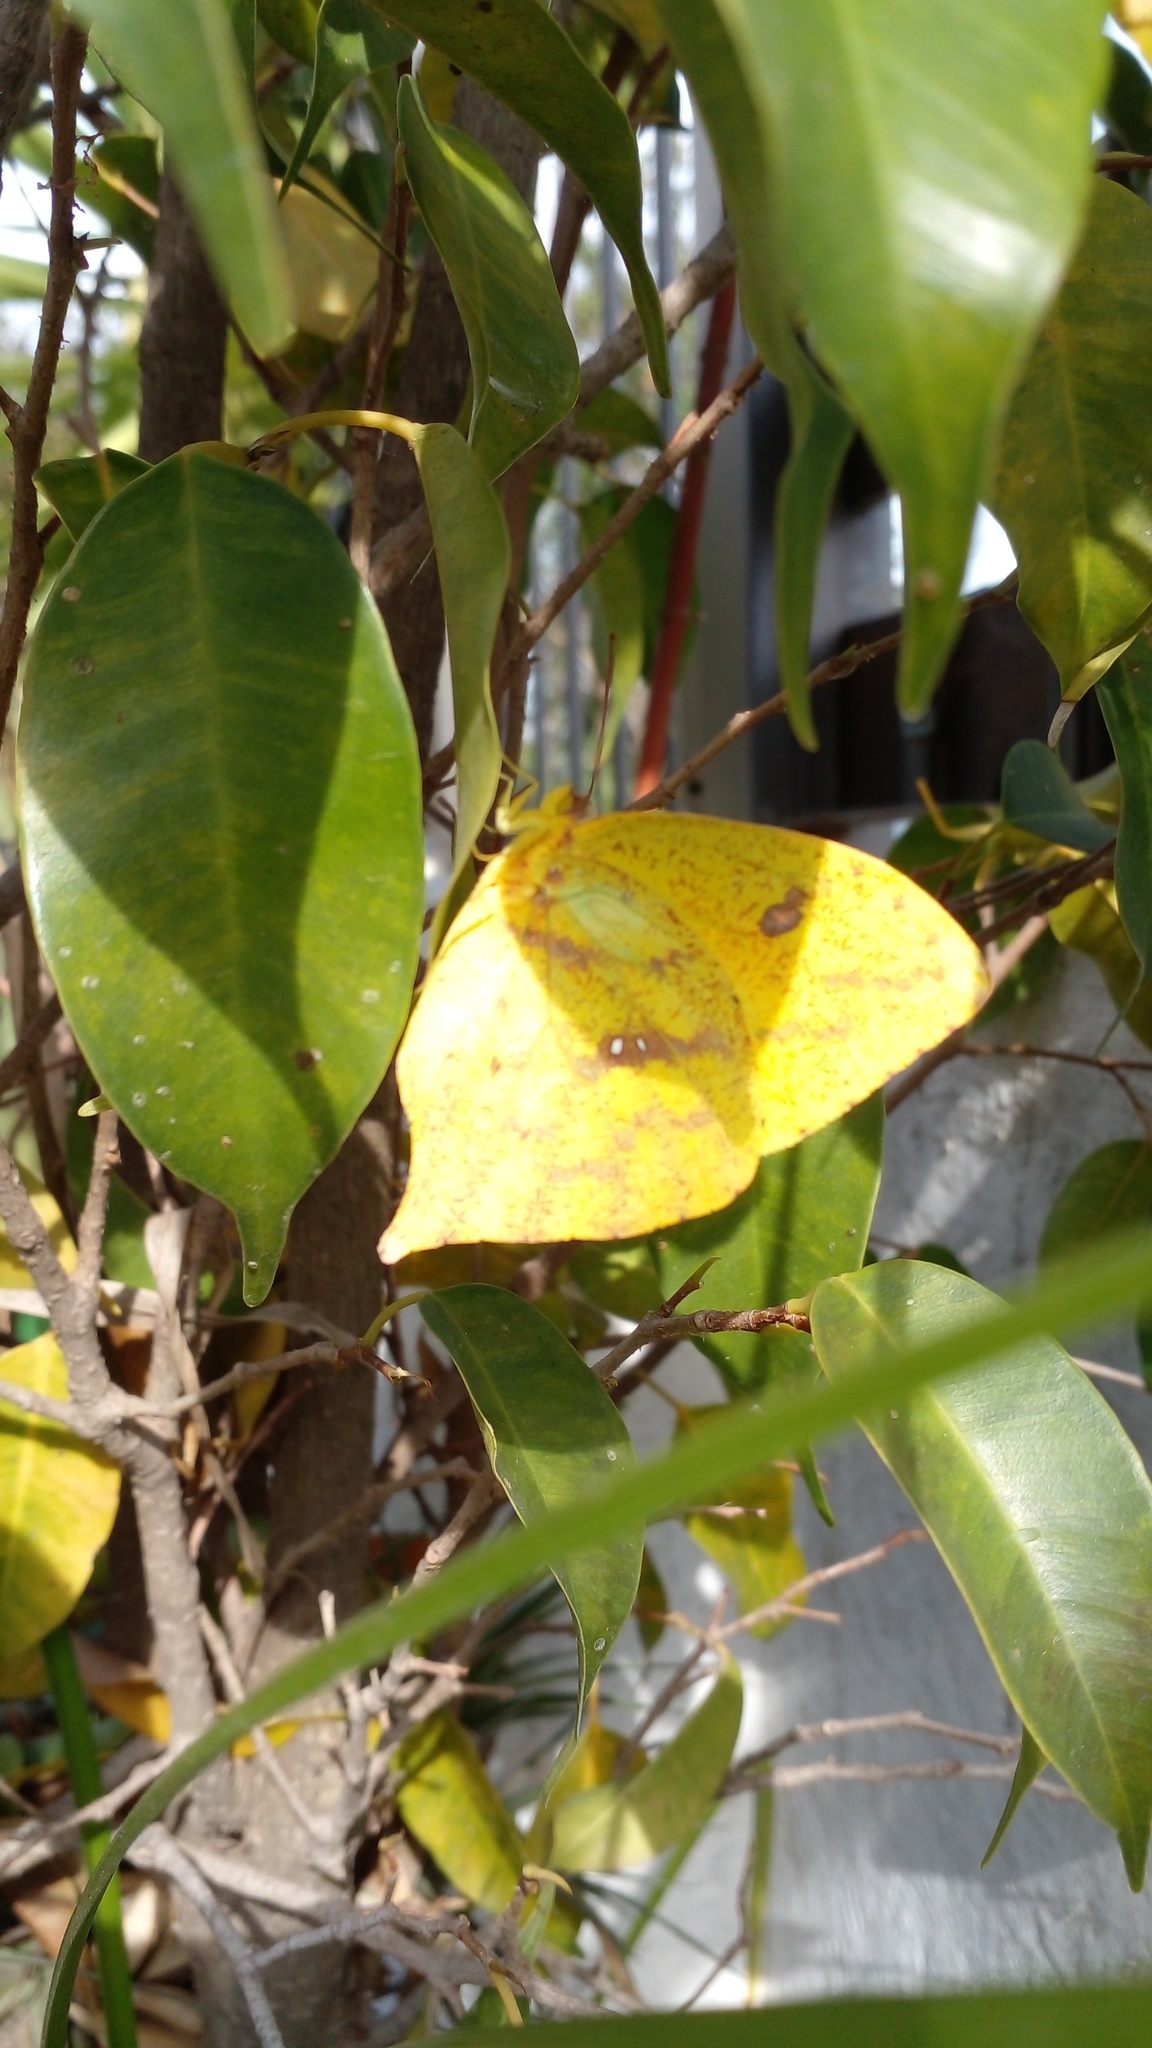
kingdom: Animalia
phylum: Arthropoda
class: Insecta
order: Lepidoptera
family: Pieridae
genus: Phoebis
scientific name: Phoebis neocypris
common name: Tailed sulphur
